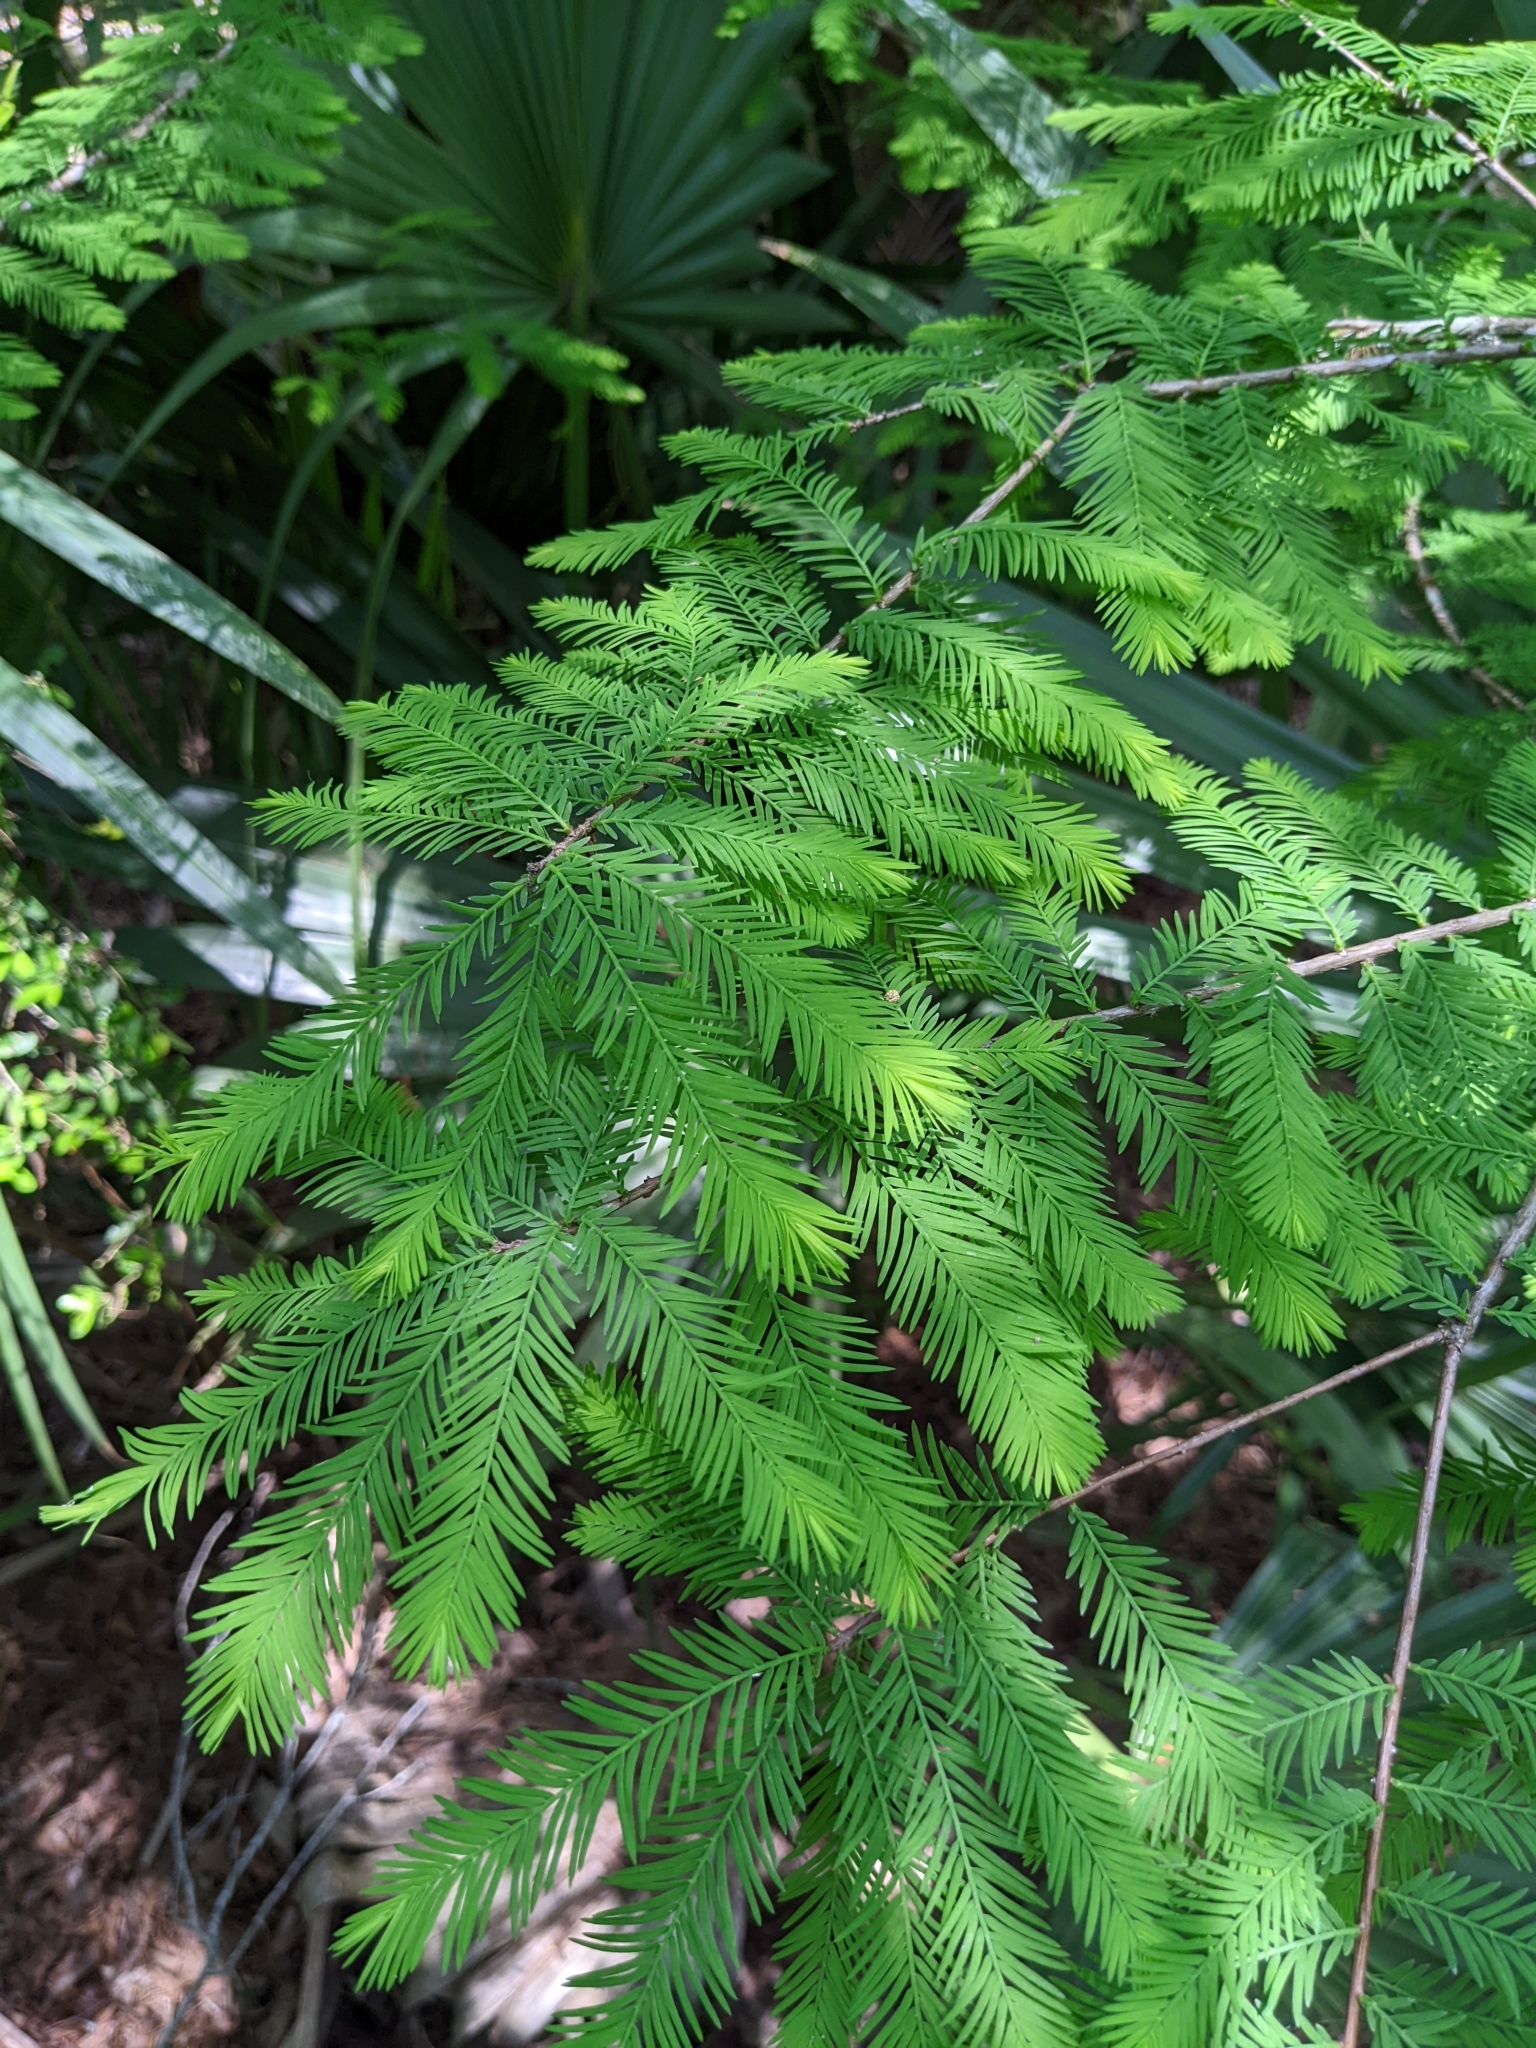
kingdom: Plantae
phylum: Tracheophyta
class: Pinopsida
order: Pinales
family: Cupressaceae
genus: Taxodium
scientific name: Taxodium distichum
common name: Bald cypress
